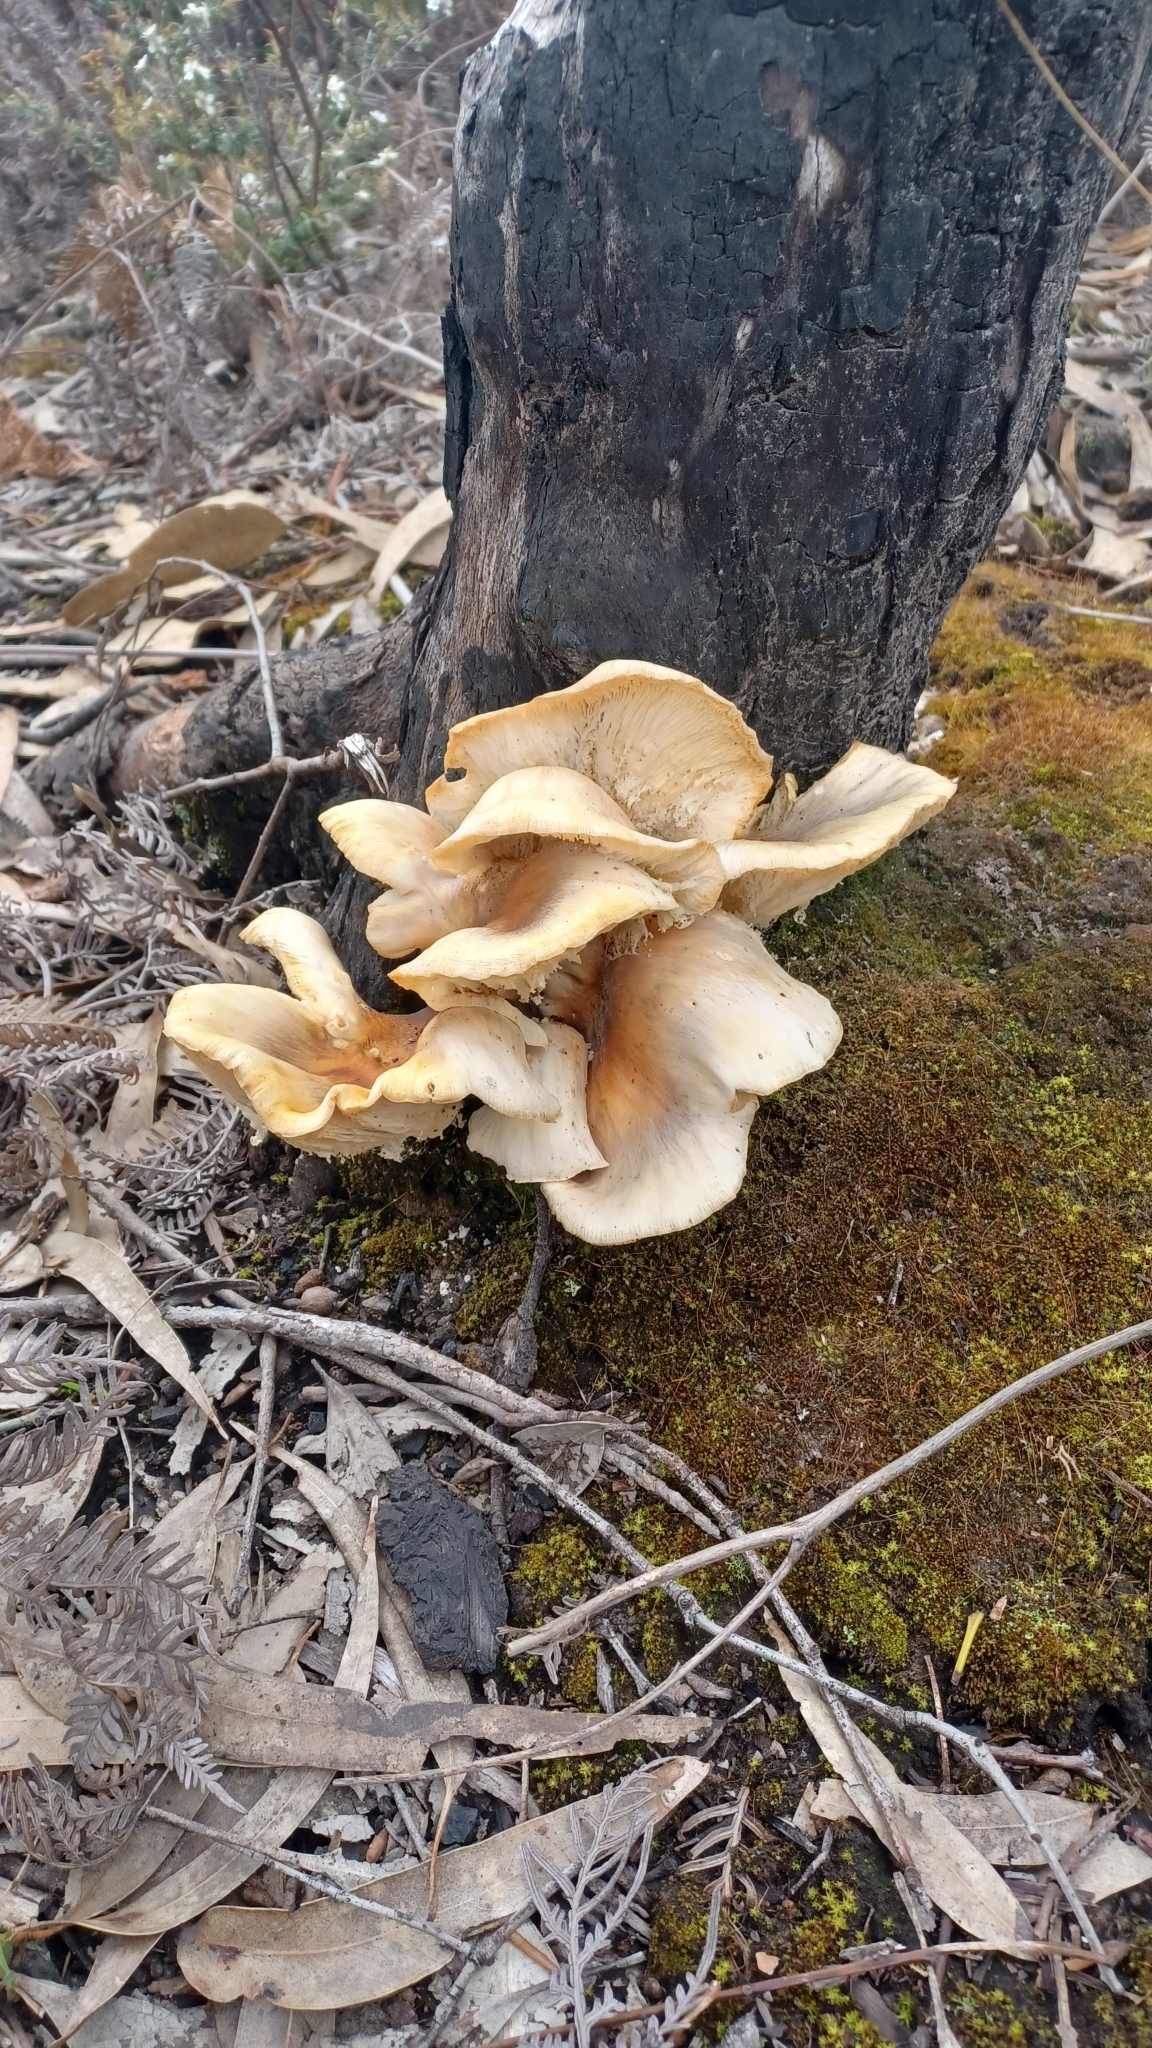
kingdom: Fungi
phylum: Basidiomycota
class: Agaricomycetes
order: Agaricales
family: Omphalotaceae
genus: Omphalotus
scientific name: Omphalotus nidiformis
